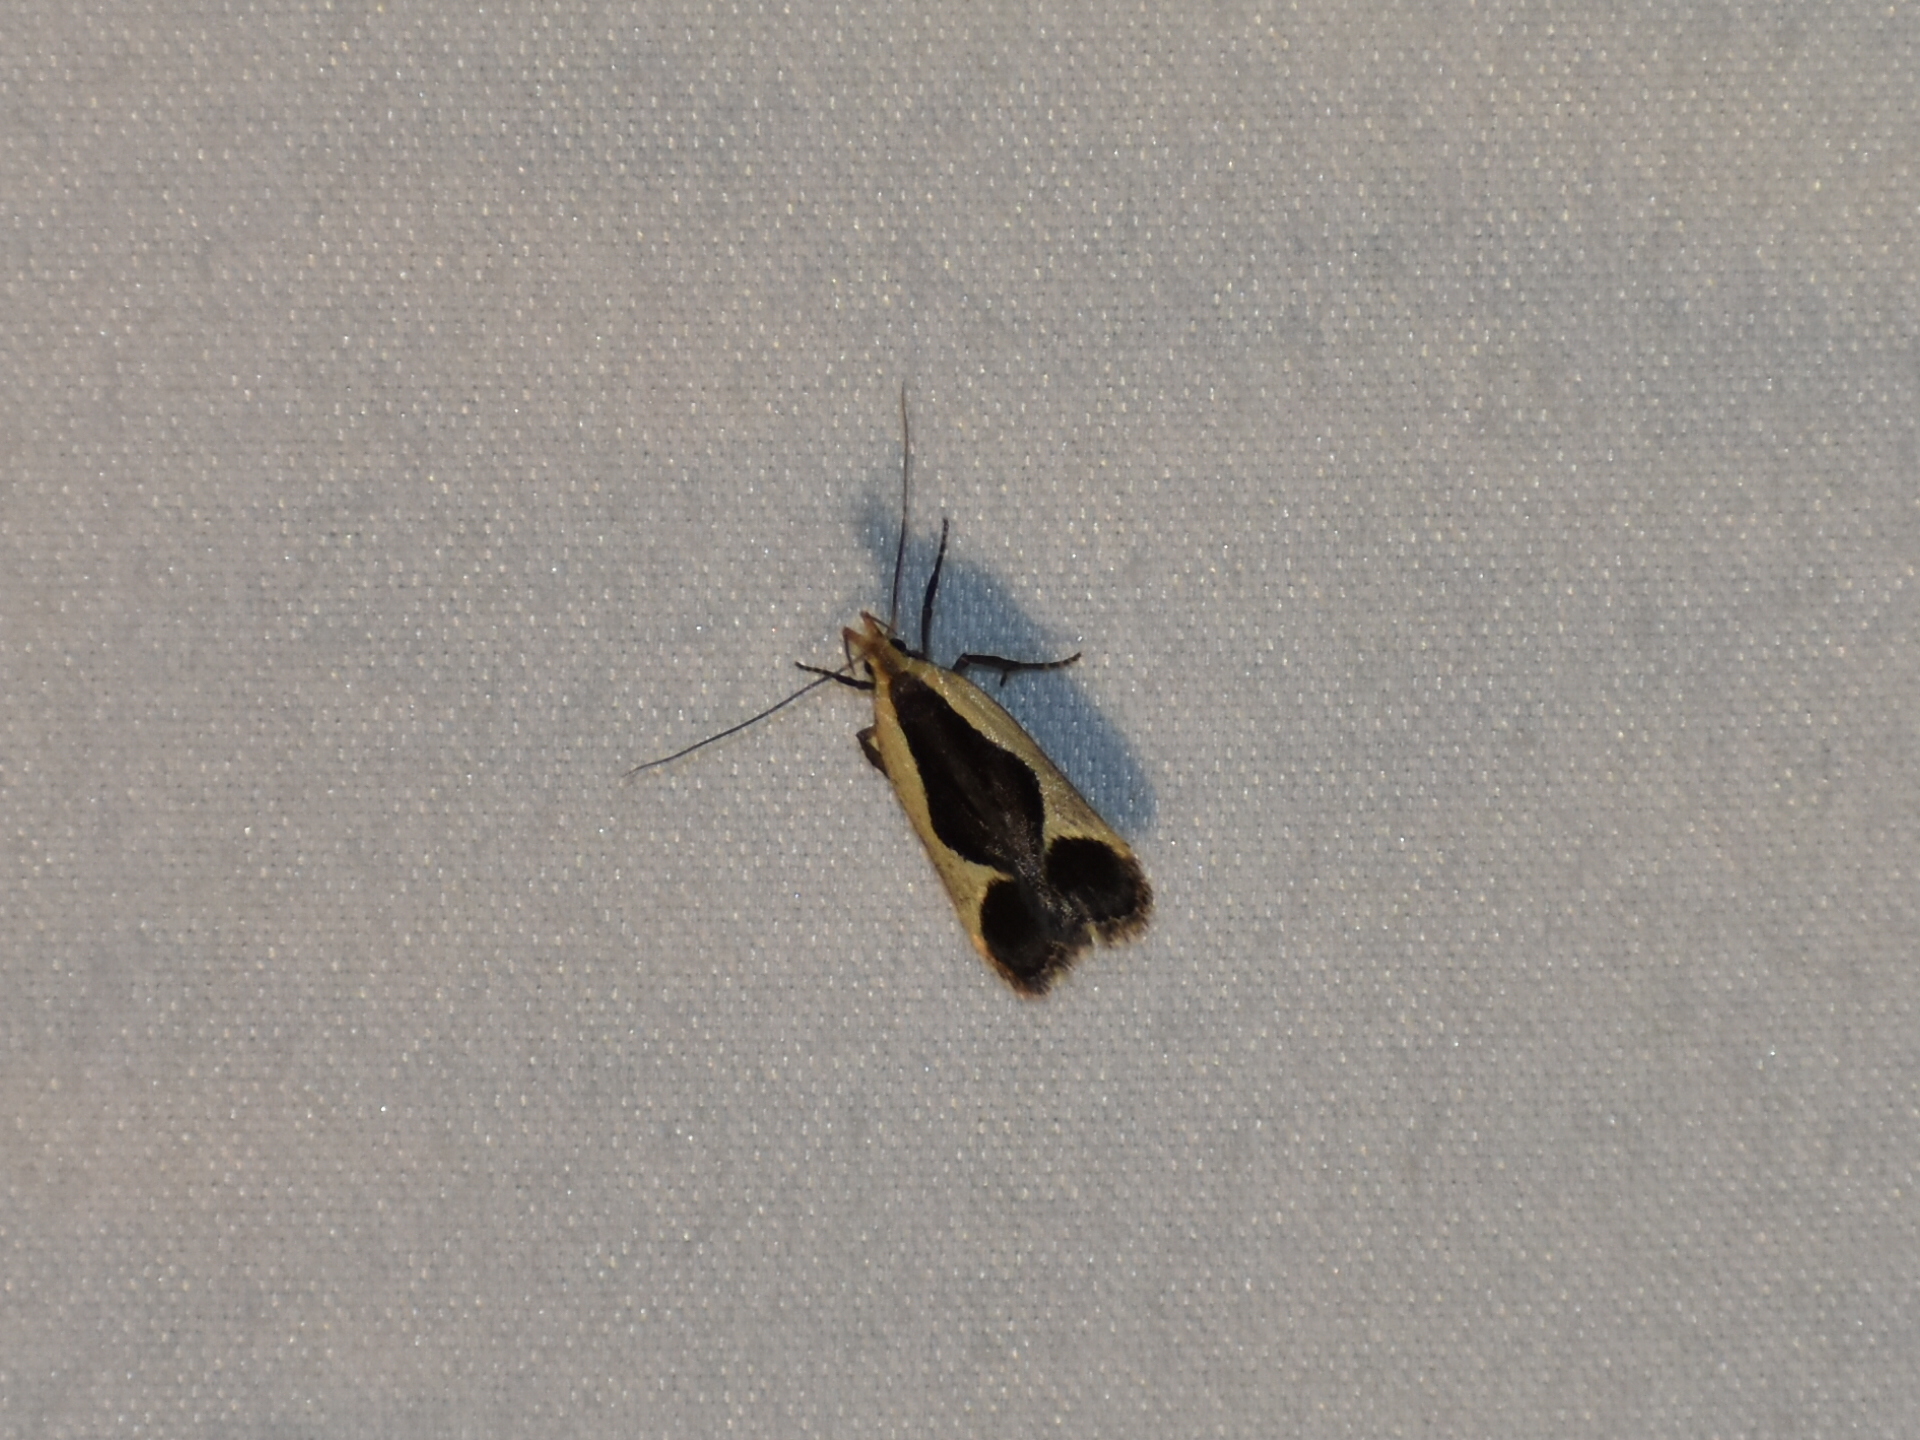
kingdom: Animalia
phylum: Arthropoda
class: Insecta
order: Lepidoptera
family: Gelechiidae
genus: Dichomeris
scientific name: Dichomeris flavocostella
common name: Cream-edged dichomeris moth
